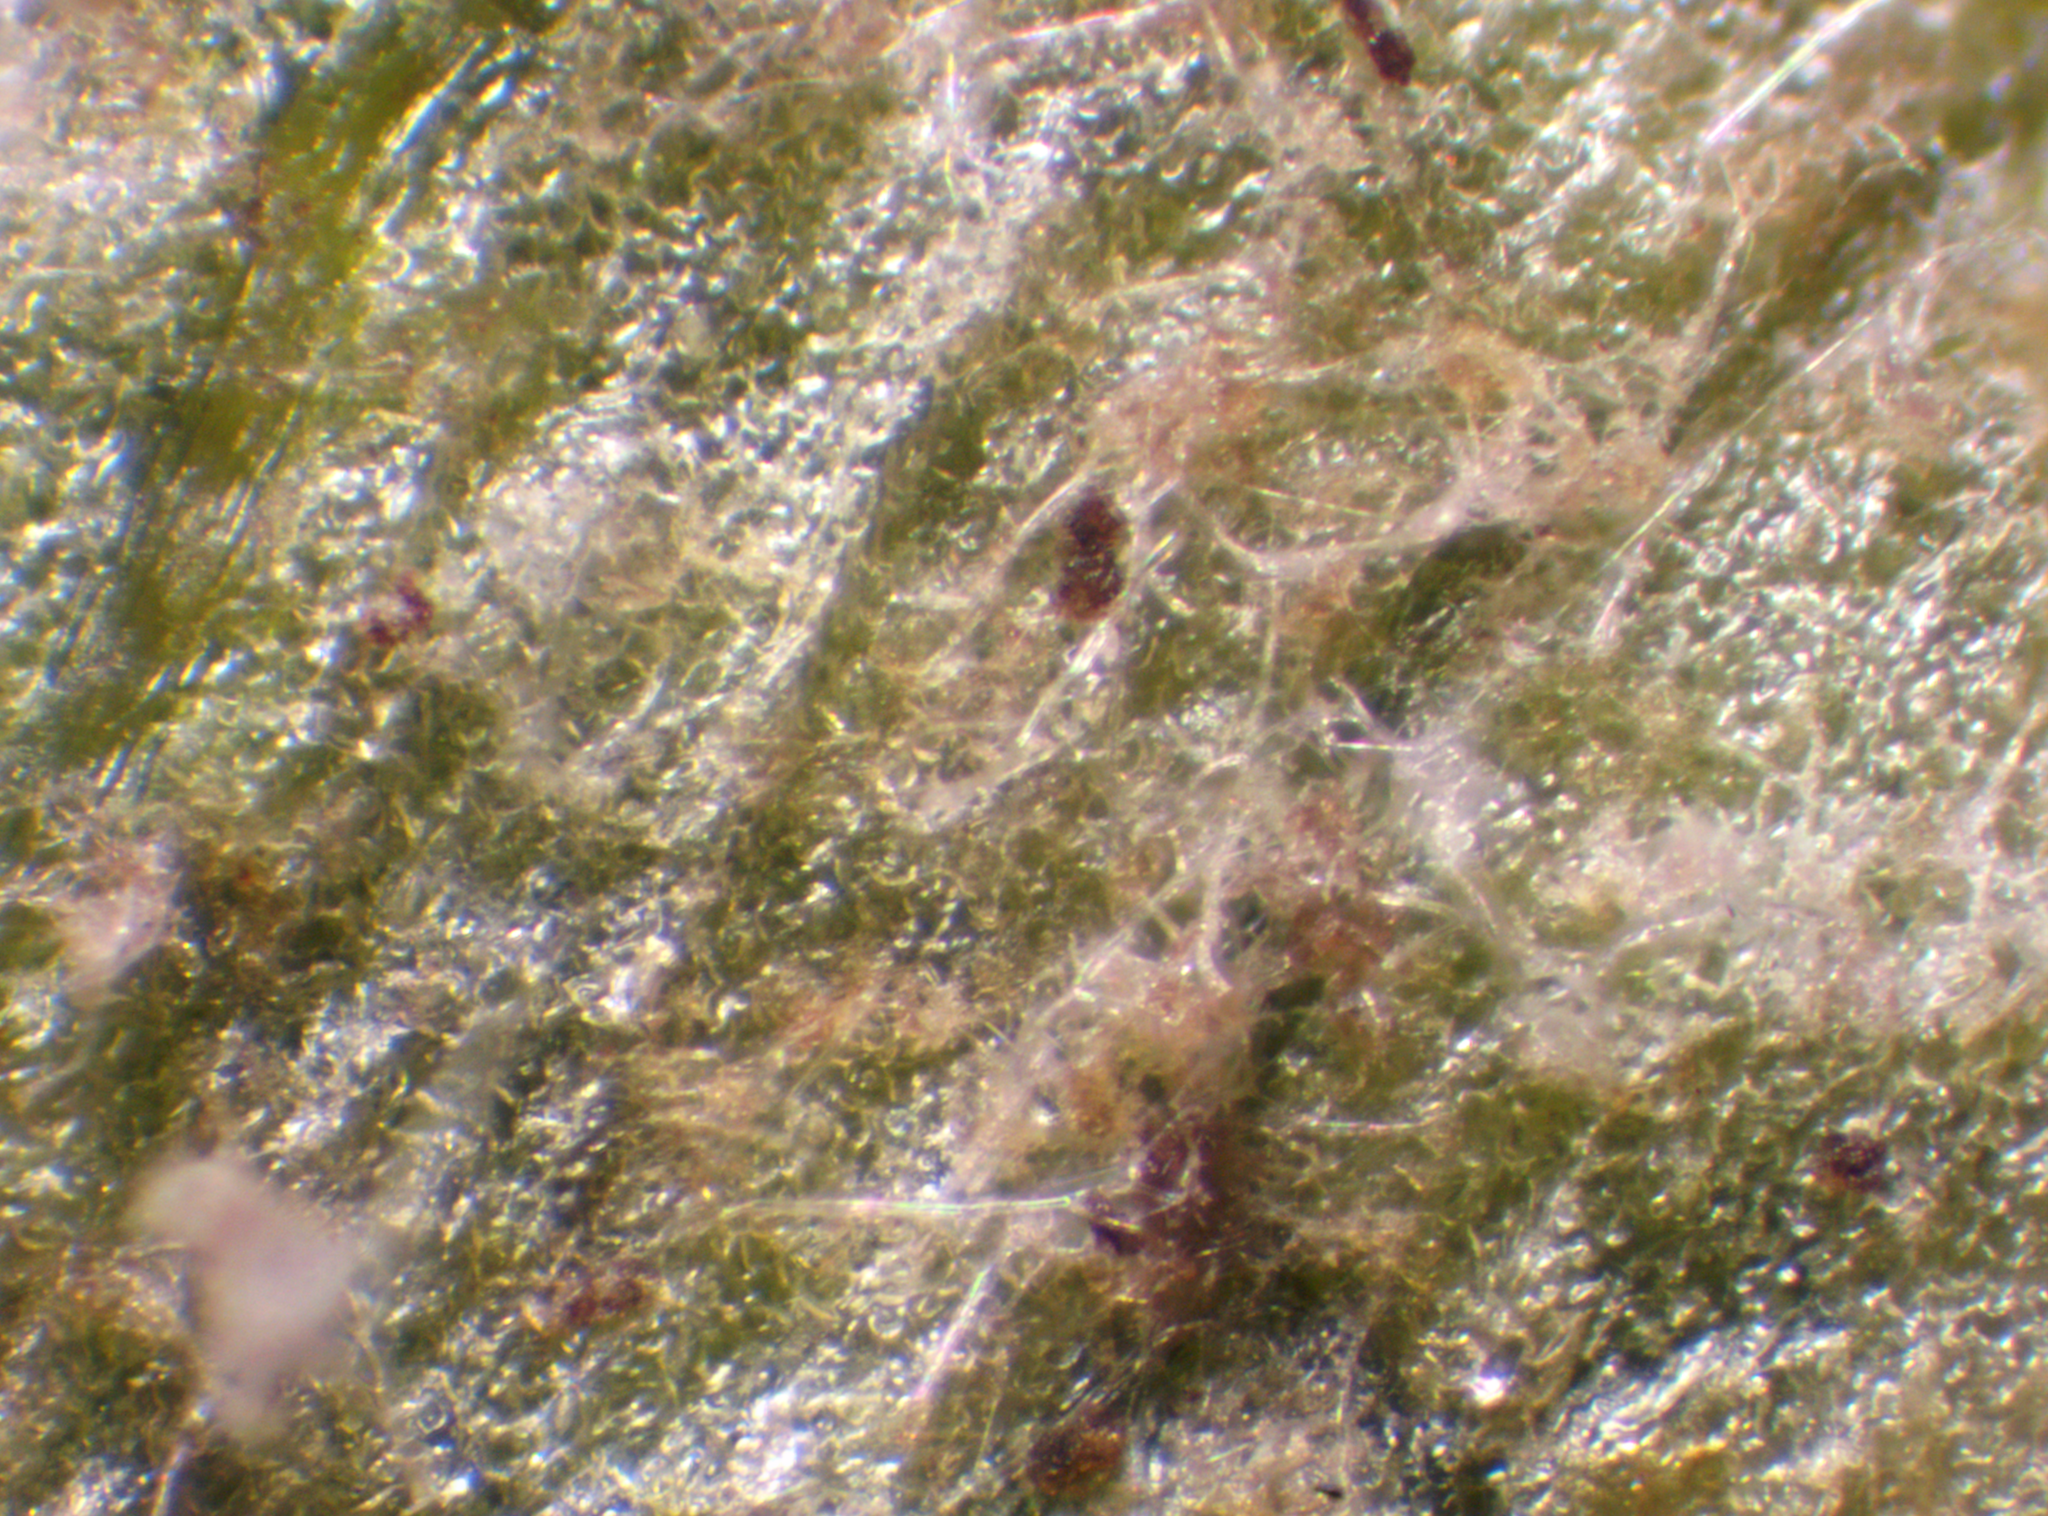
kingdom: Chromista
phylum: Oomycota
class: Peronosporea
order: Peronosporales
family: Peronosporaceae
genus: Peronospora
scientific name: Peronospora ficariae
